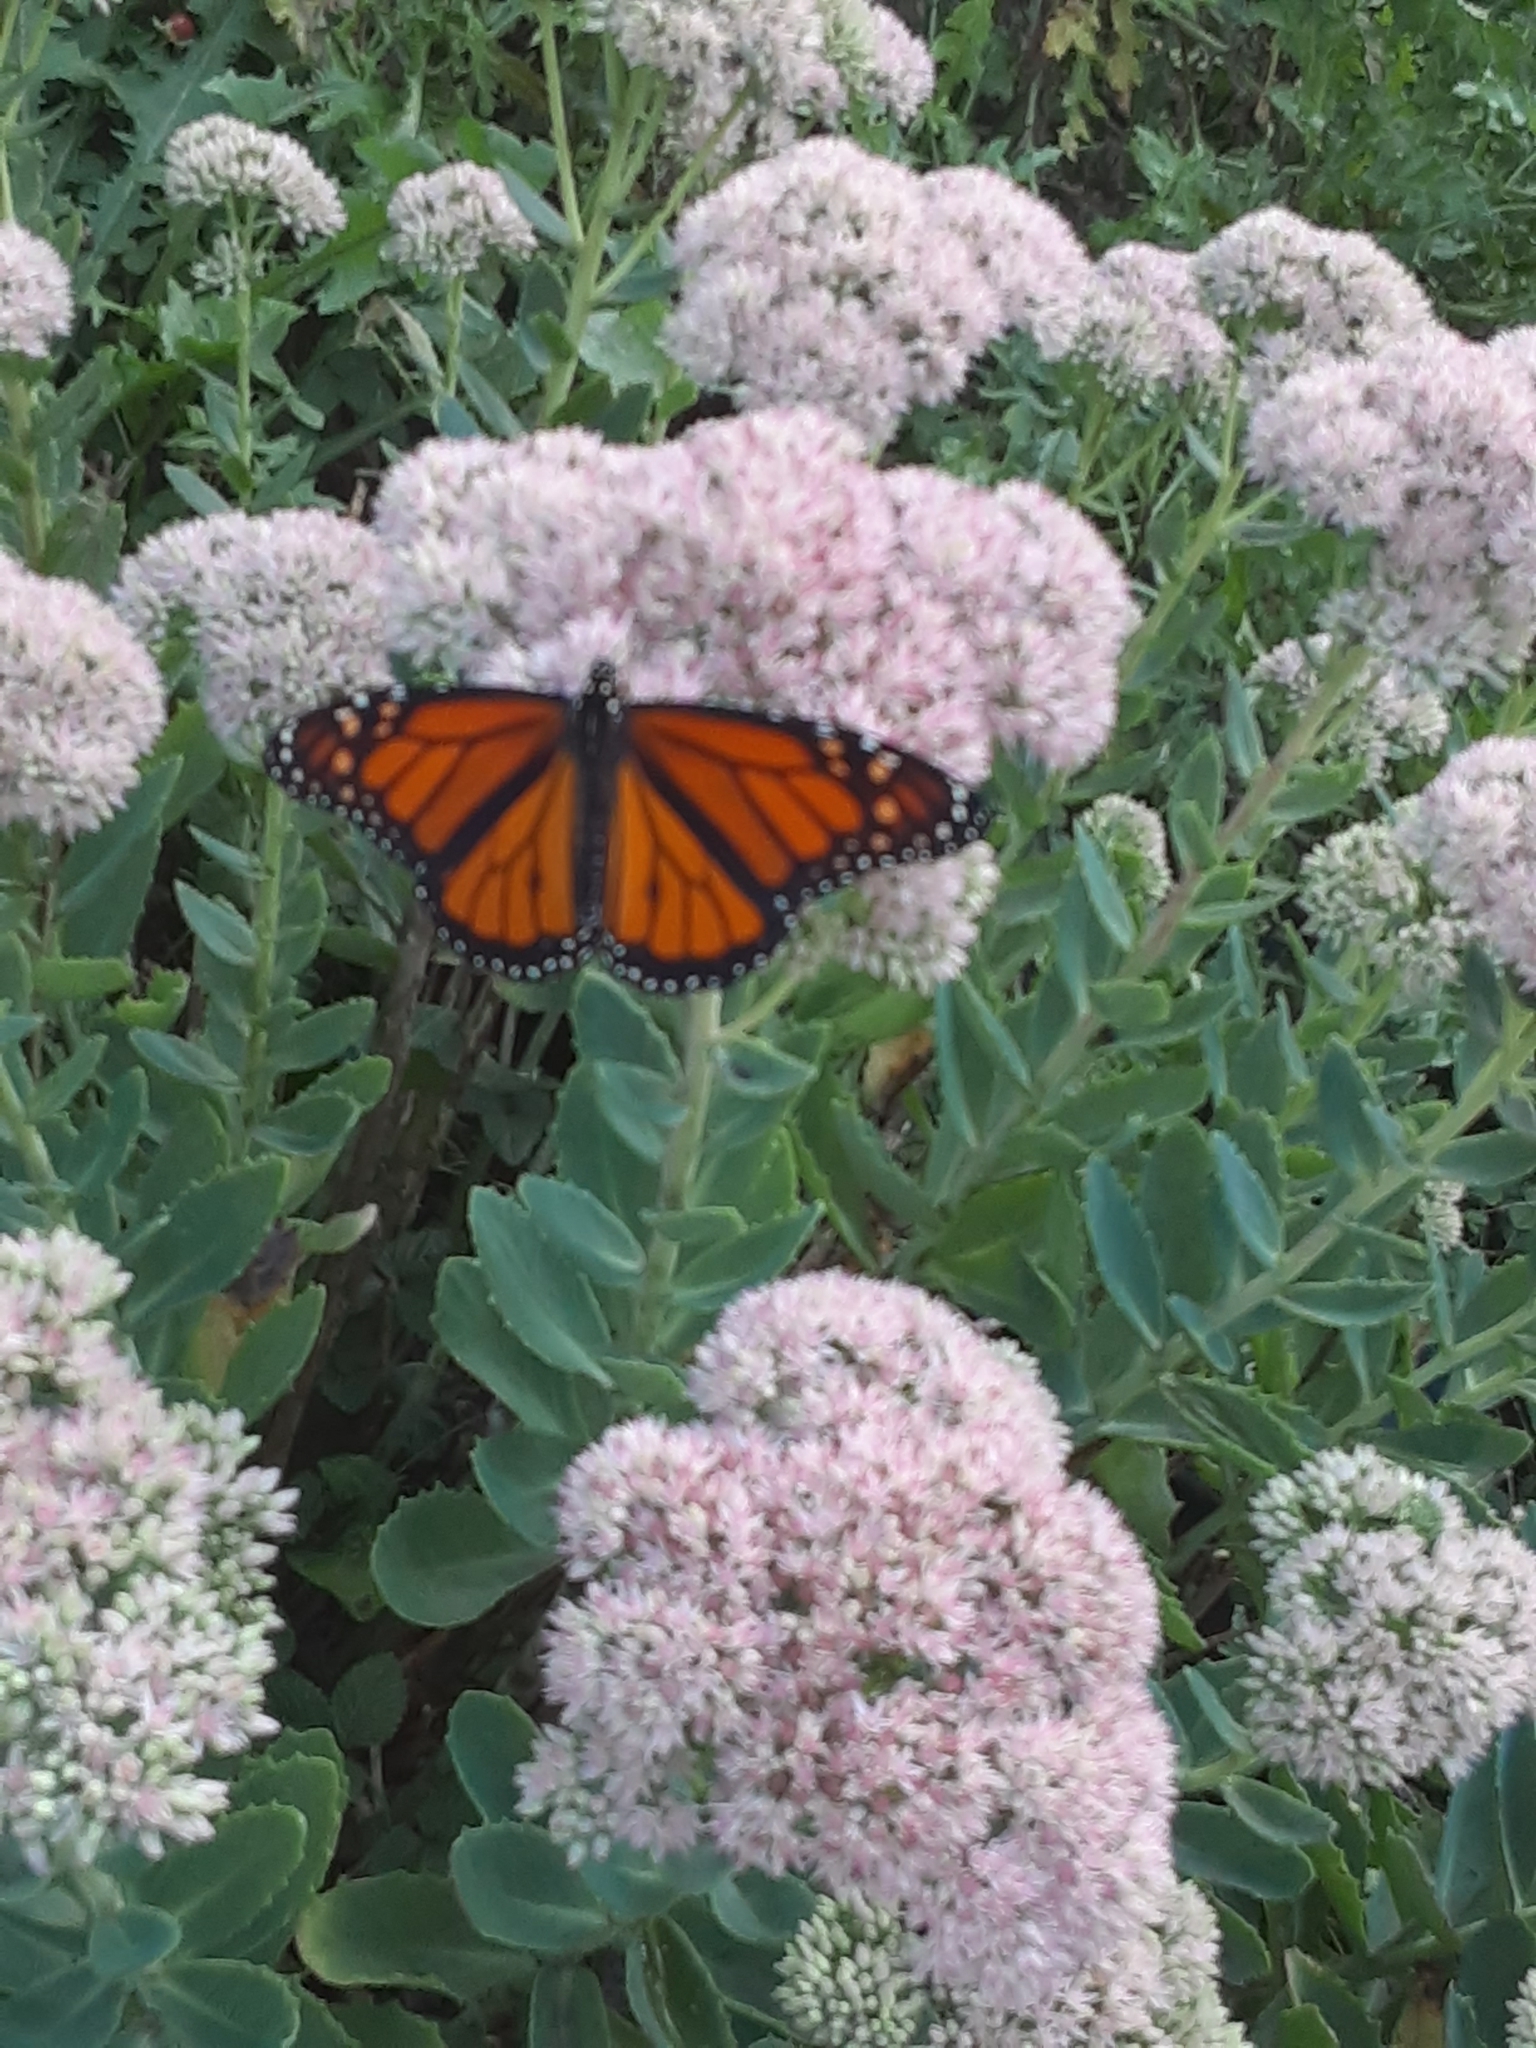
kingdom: Animalia
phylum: Arthropoda
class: Insecta
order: Lepidoptera
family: Nymphalidae
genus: Danaus
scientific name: Danaus plexippus
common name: Monarch
